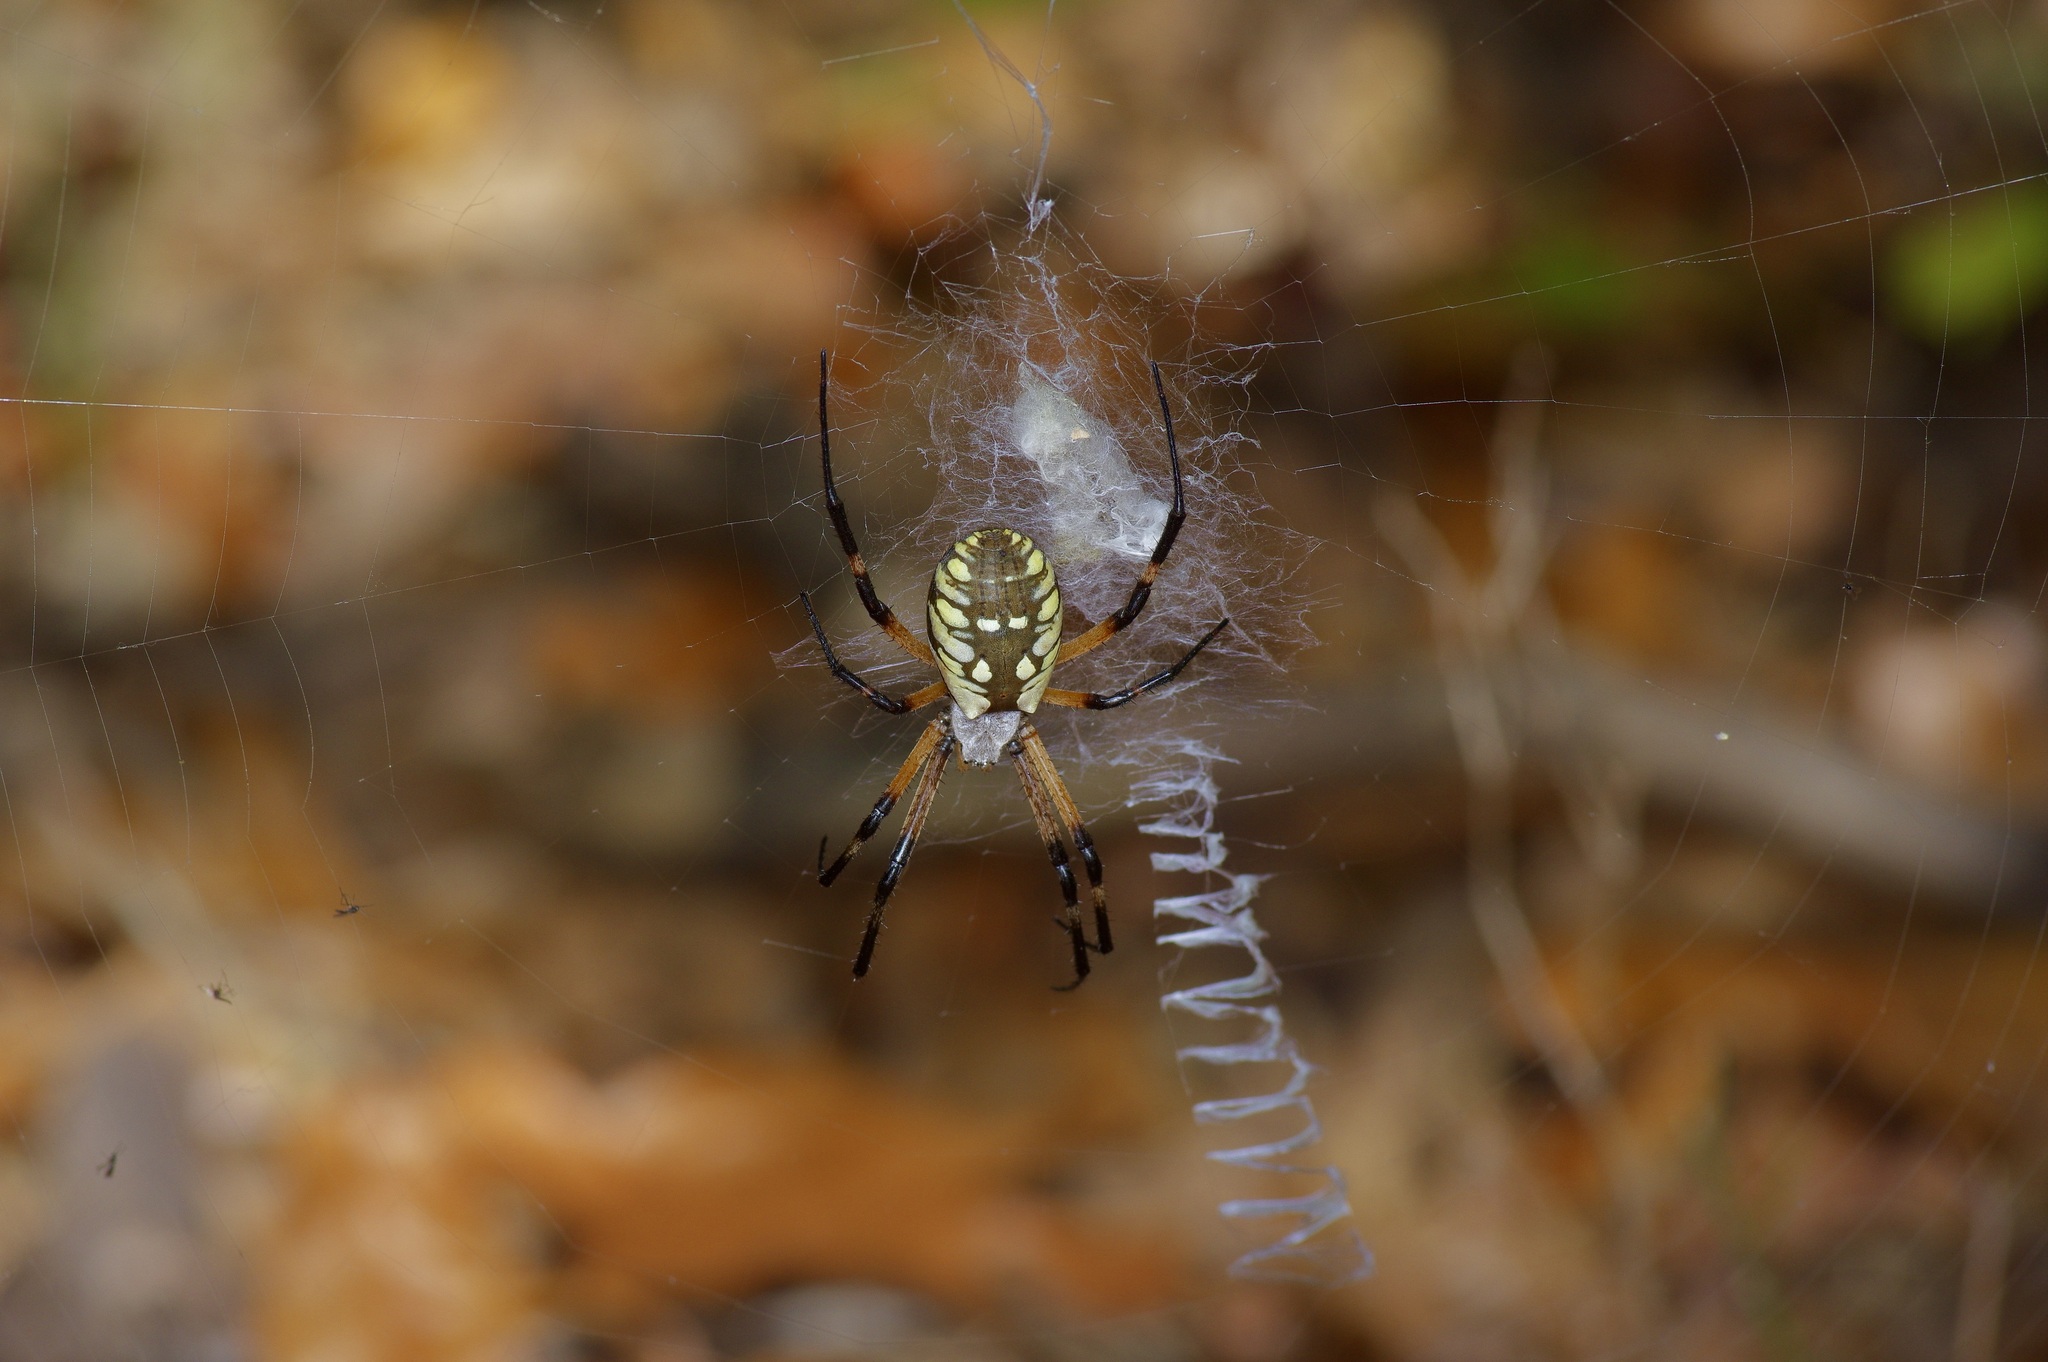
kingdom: Animalia
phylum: Arthropoda
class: Arachnida
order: Araneae
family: Araneidae
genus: Argiope
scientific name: Argiope aurantia
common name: Orb weavers
